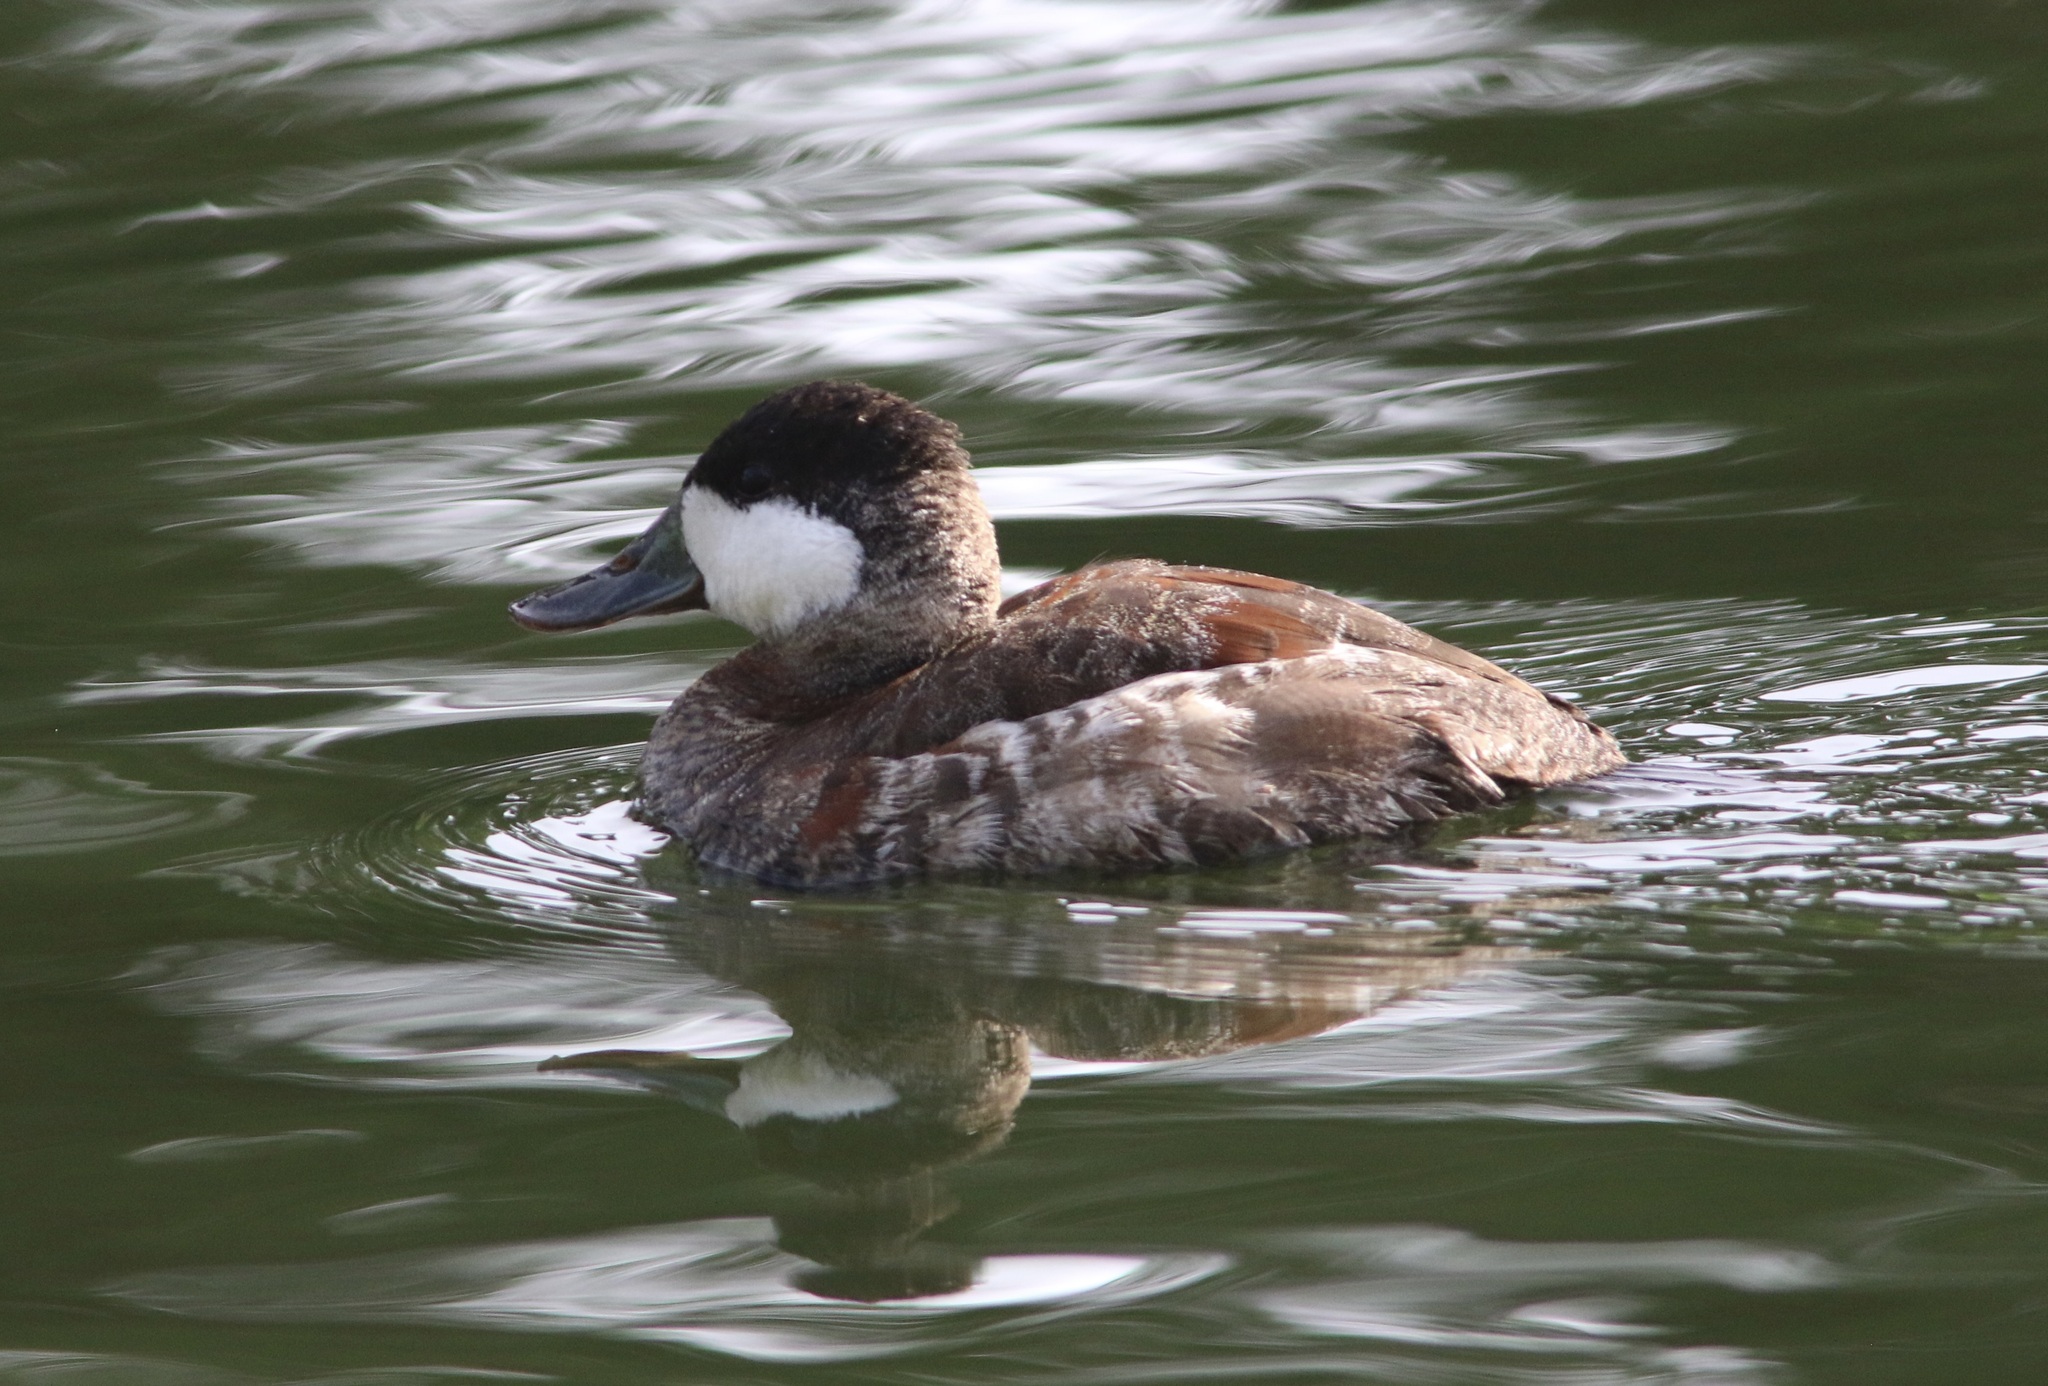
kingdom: Animalia
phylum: Chordata
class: Aves
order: Anseriformes
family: Anatidae
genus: Oxyura
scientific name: Oxyura jamaicensis
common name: Ruddy duck
